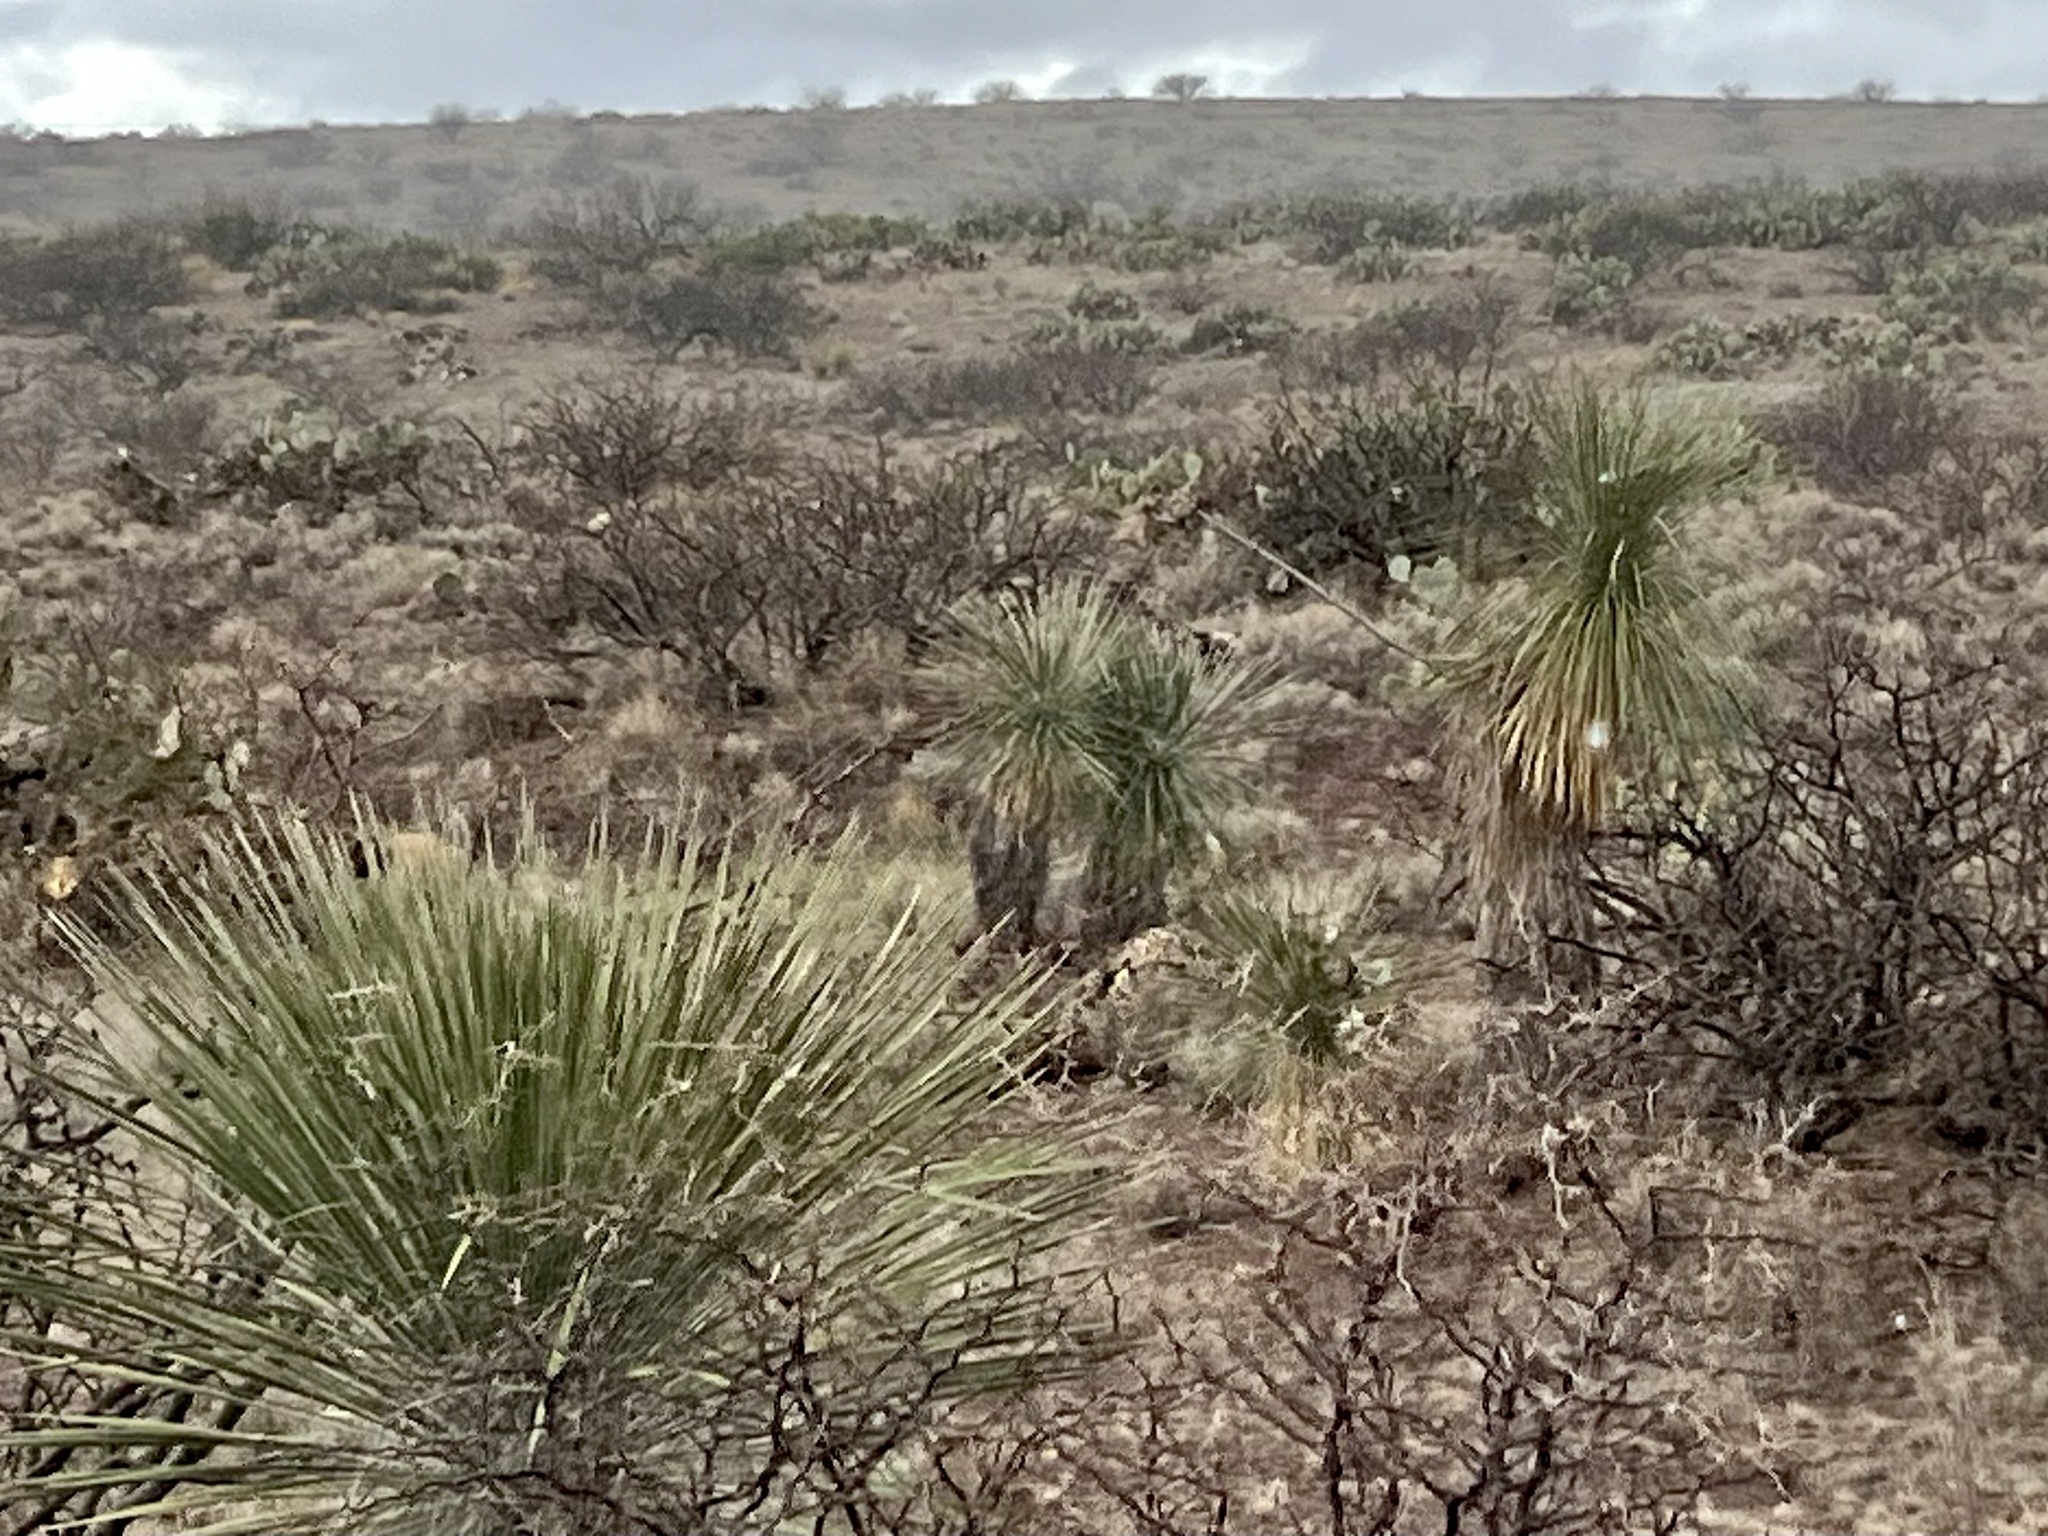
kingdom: Plantae
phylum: Tracheophyta
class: Liliopsida
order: Asparagales
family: Asparagaceae
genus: Yucca
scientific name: Yucca elata
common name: Palmella
